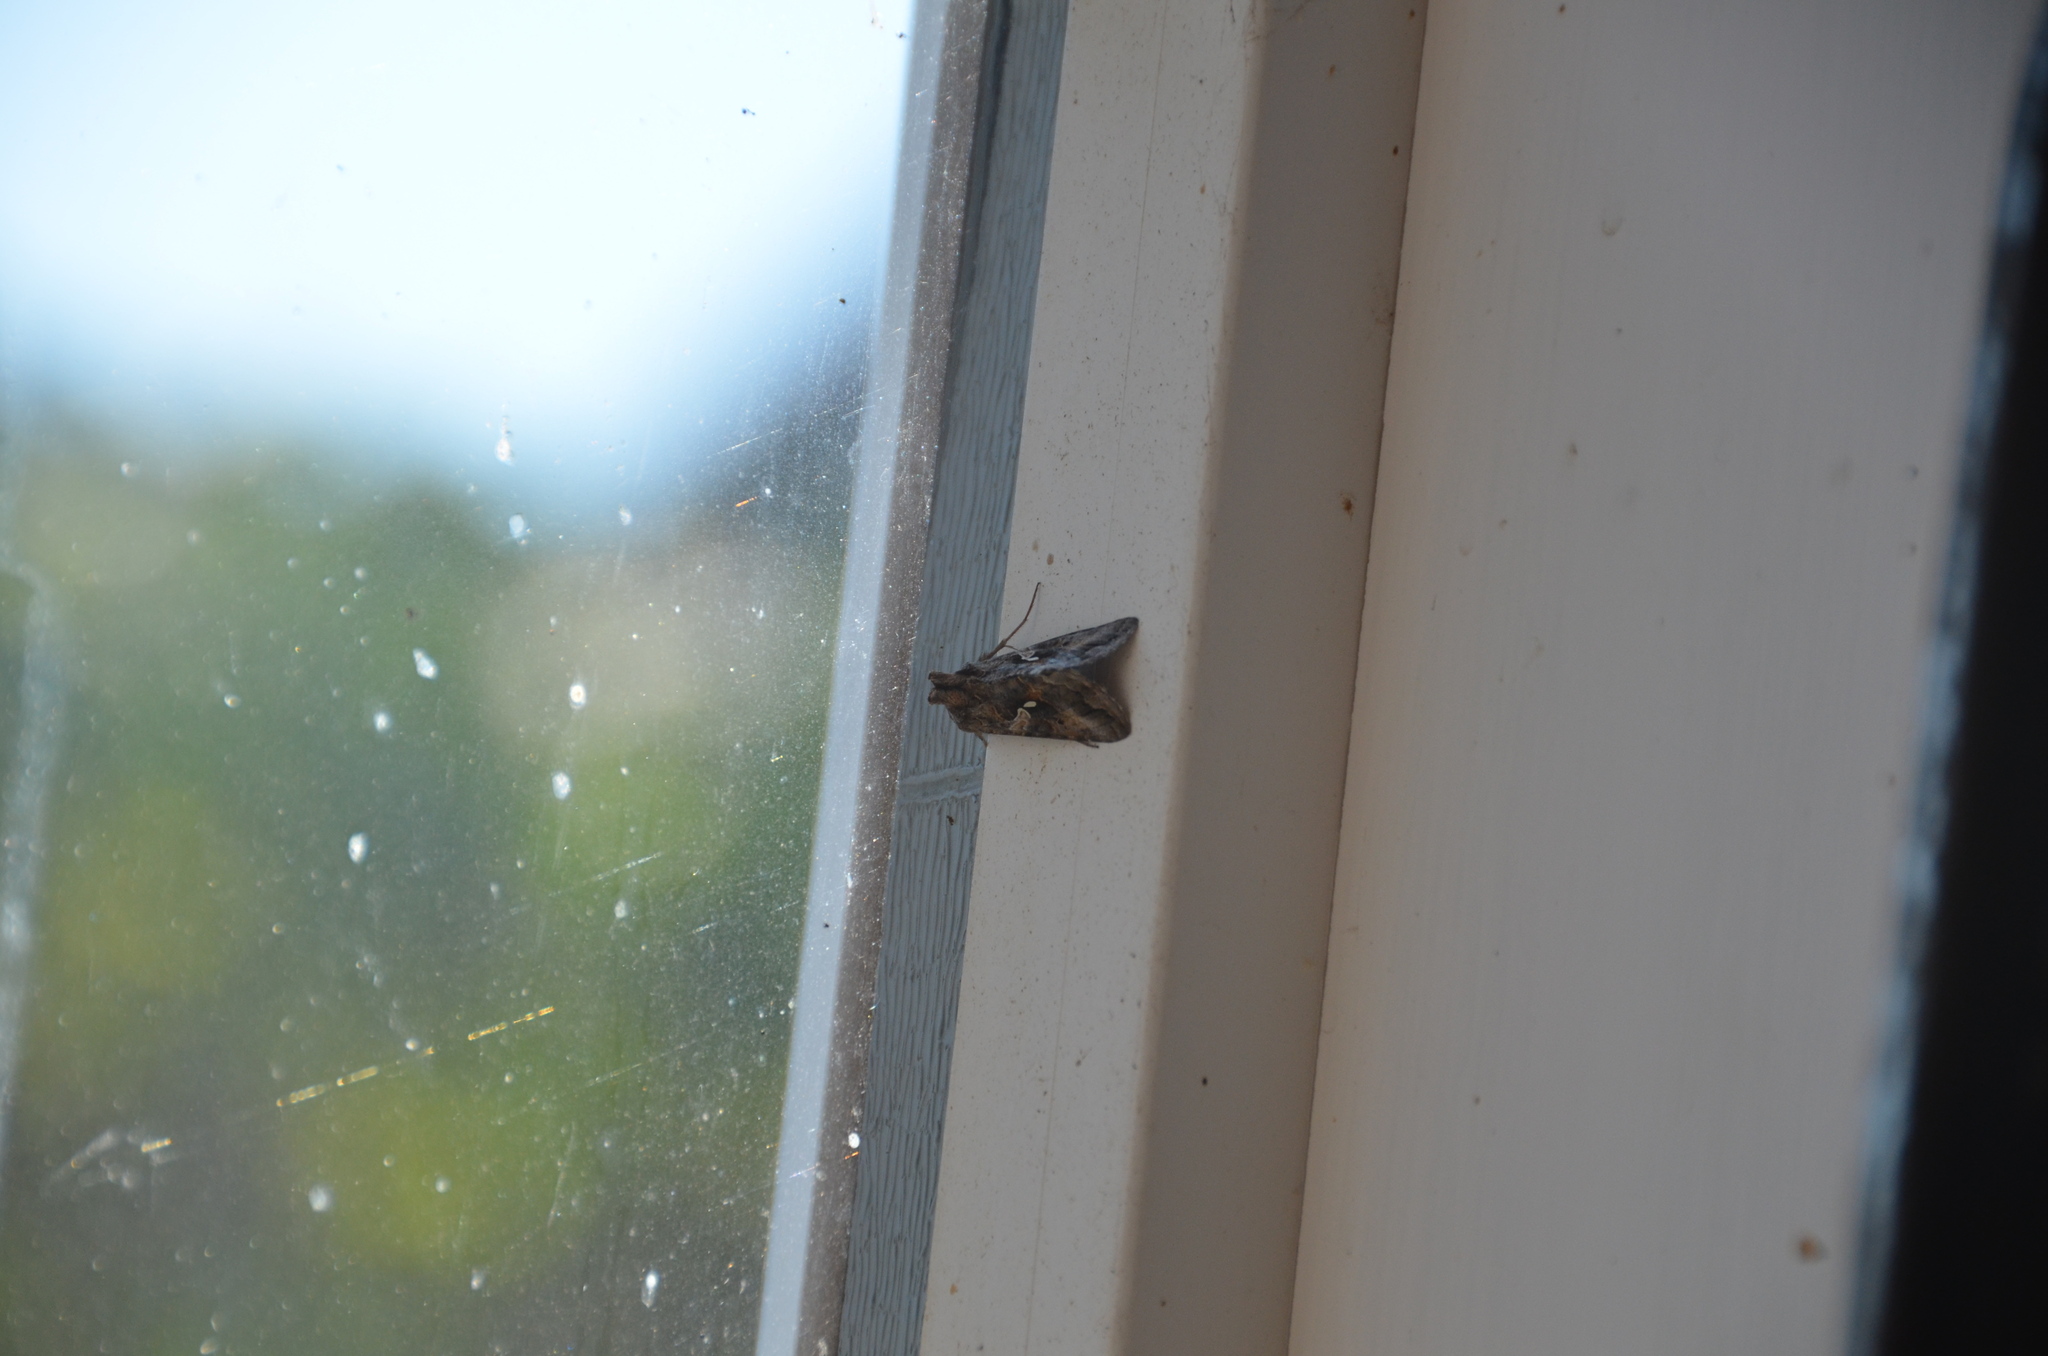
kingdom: Animalia
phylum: Arthropoda
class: Insecta
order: Lepidoptera
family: Noctuidae
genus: Autographa
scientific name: Autographa californica
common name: Alfalfa looper
